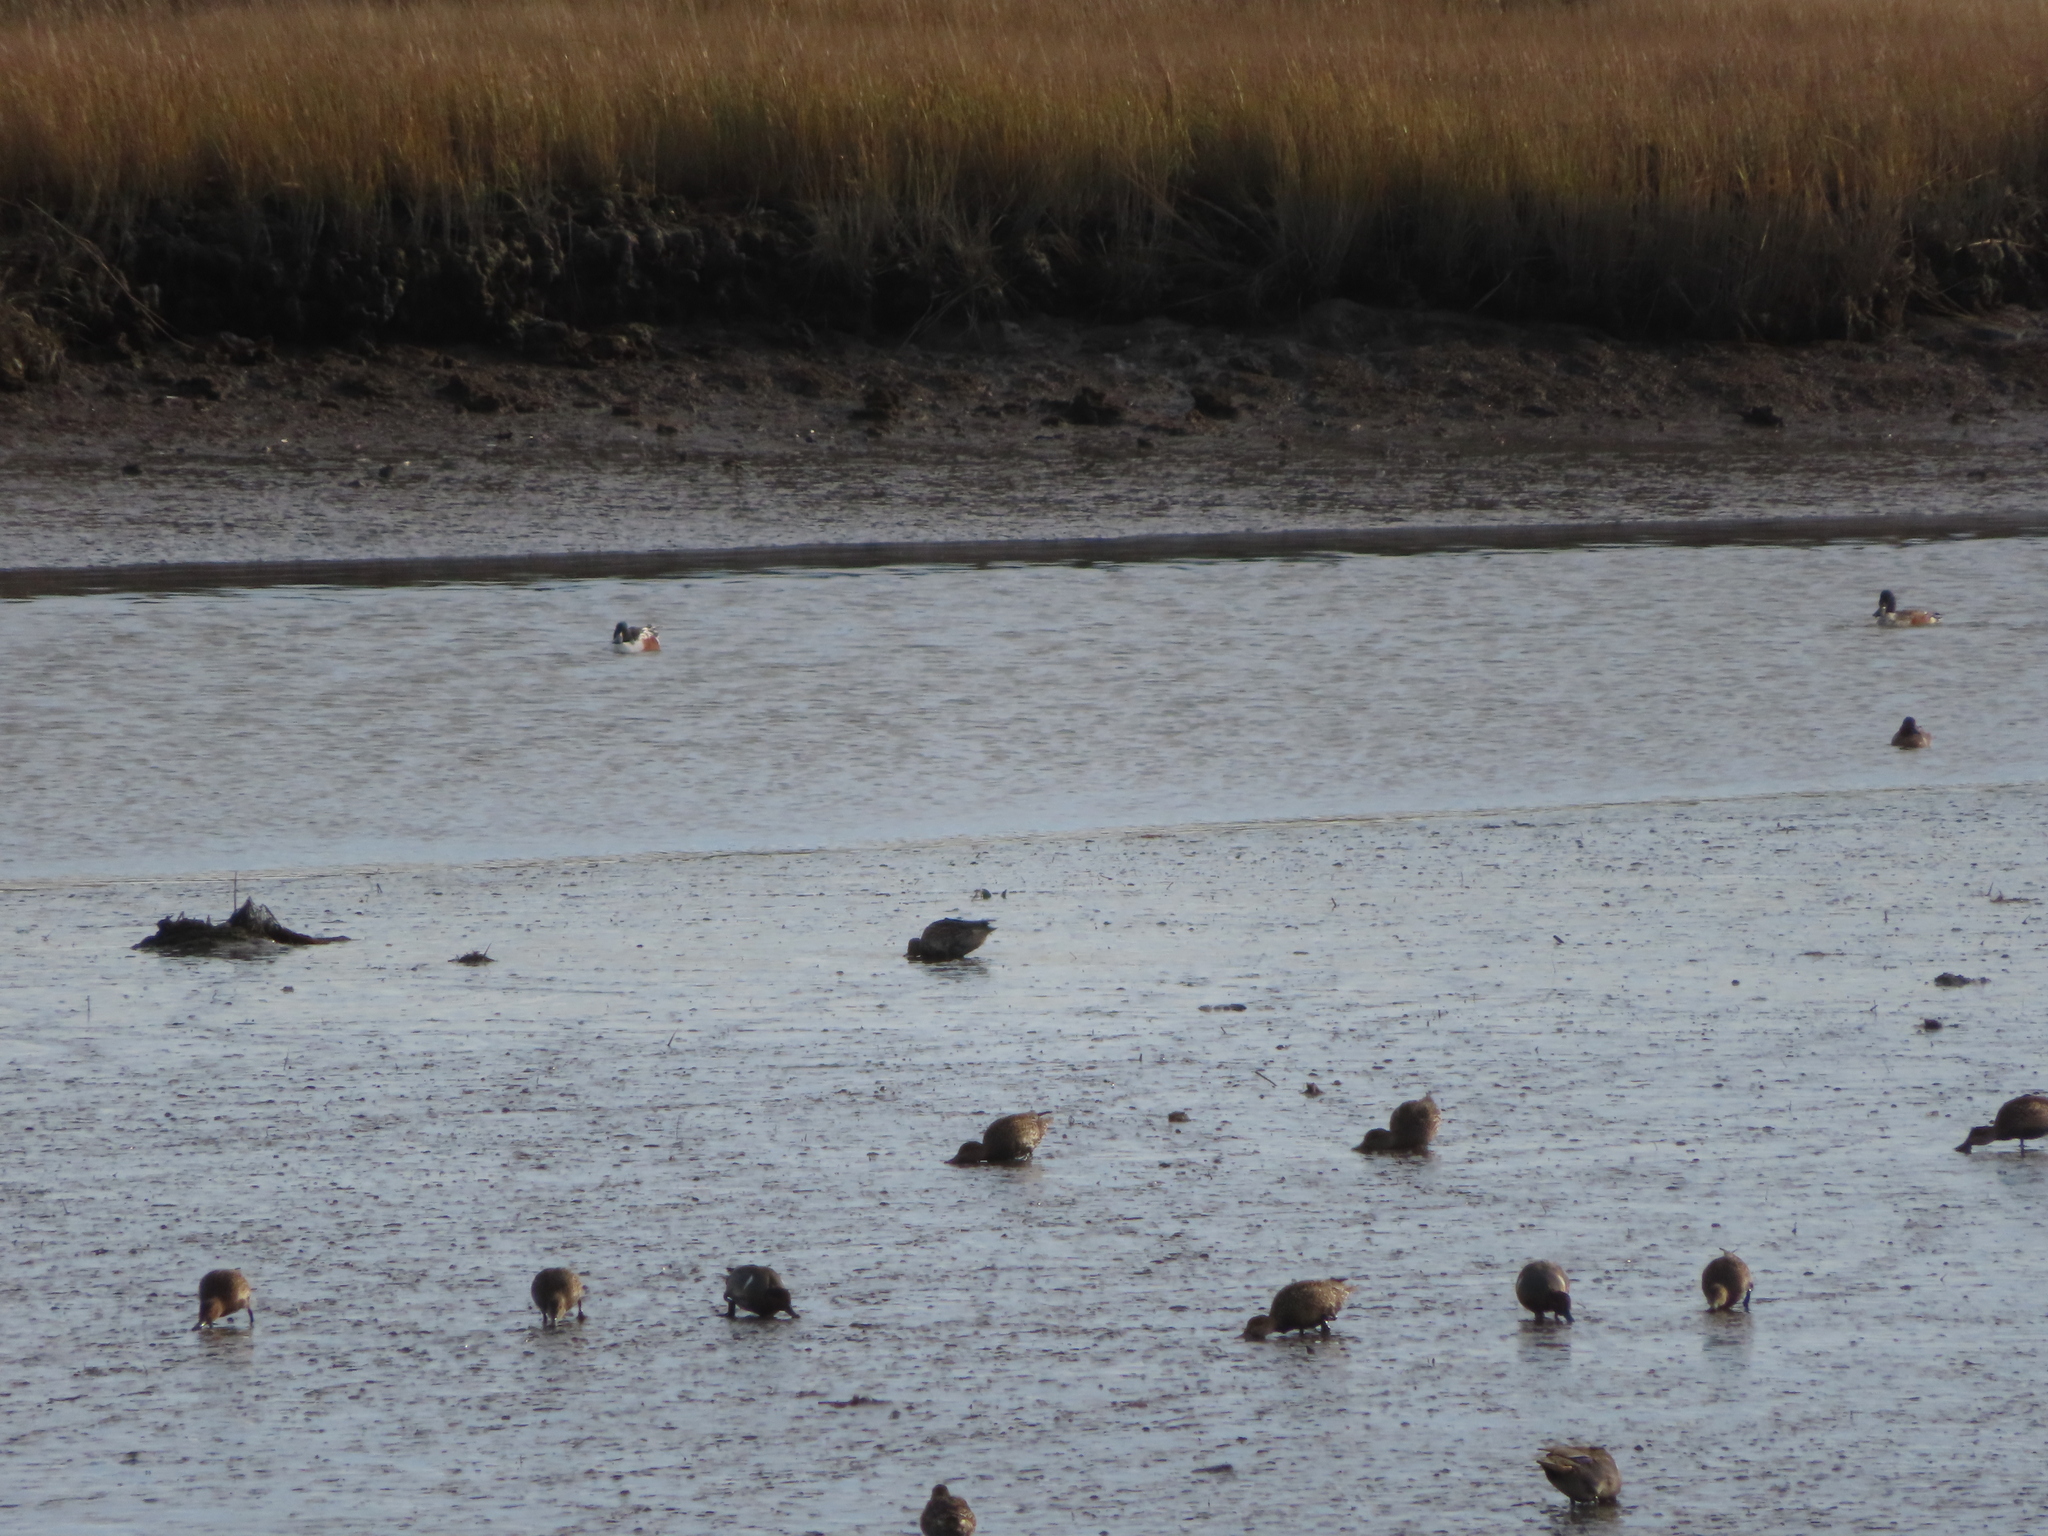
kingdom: Animalia
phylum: Chordata
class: Aves
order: Anseriformes
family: Anatidae
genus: Anas
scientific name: Anas crecca
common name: Eurasian teal
